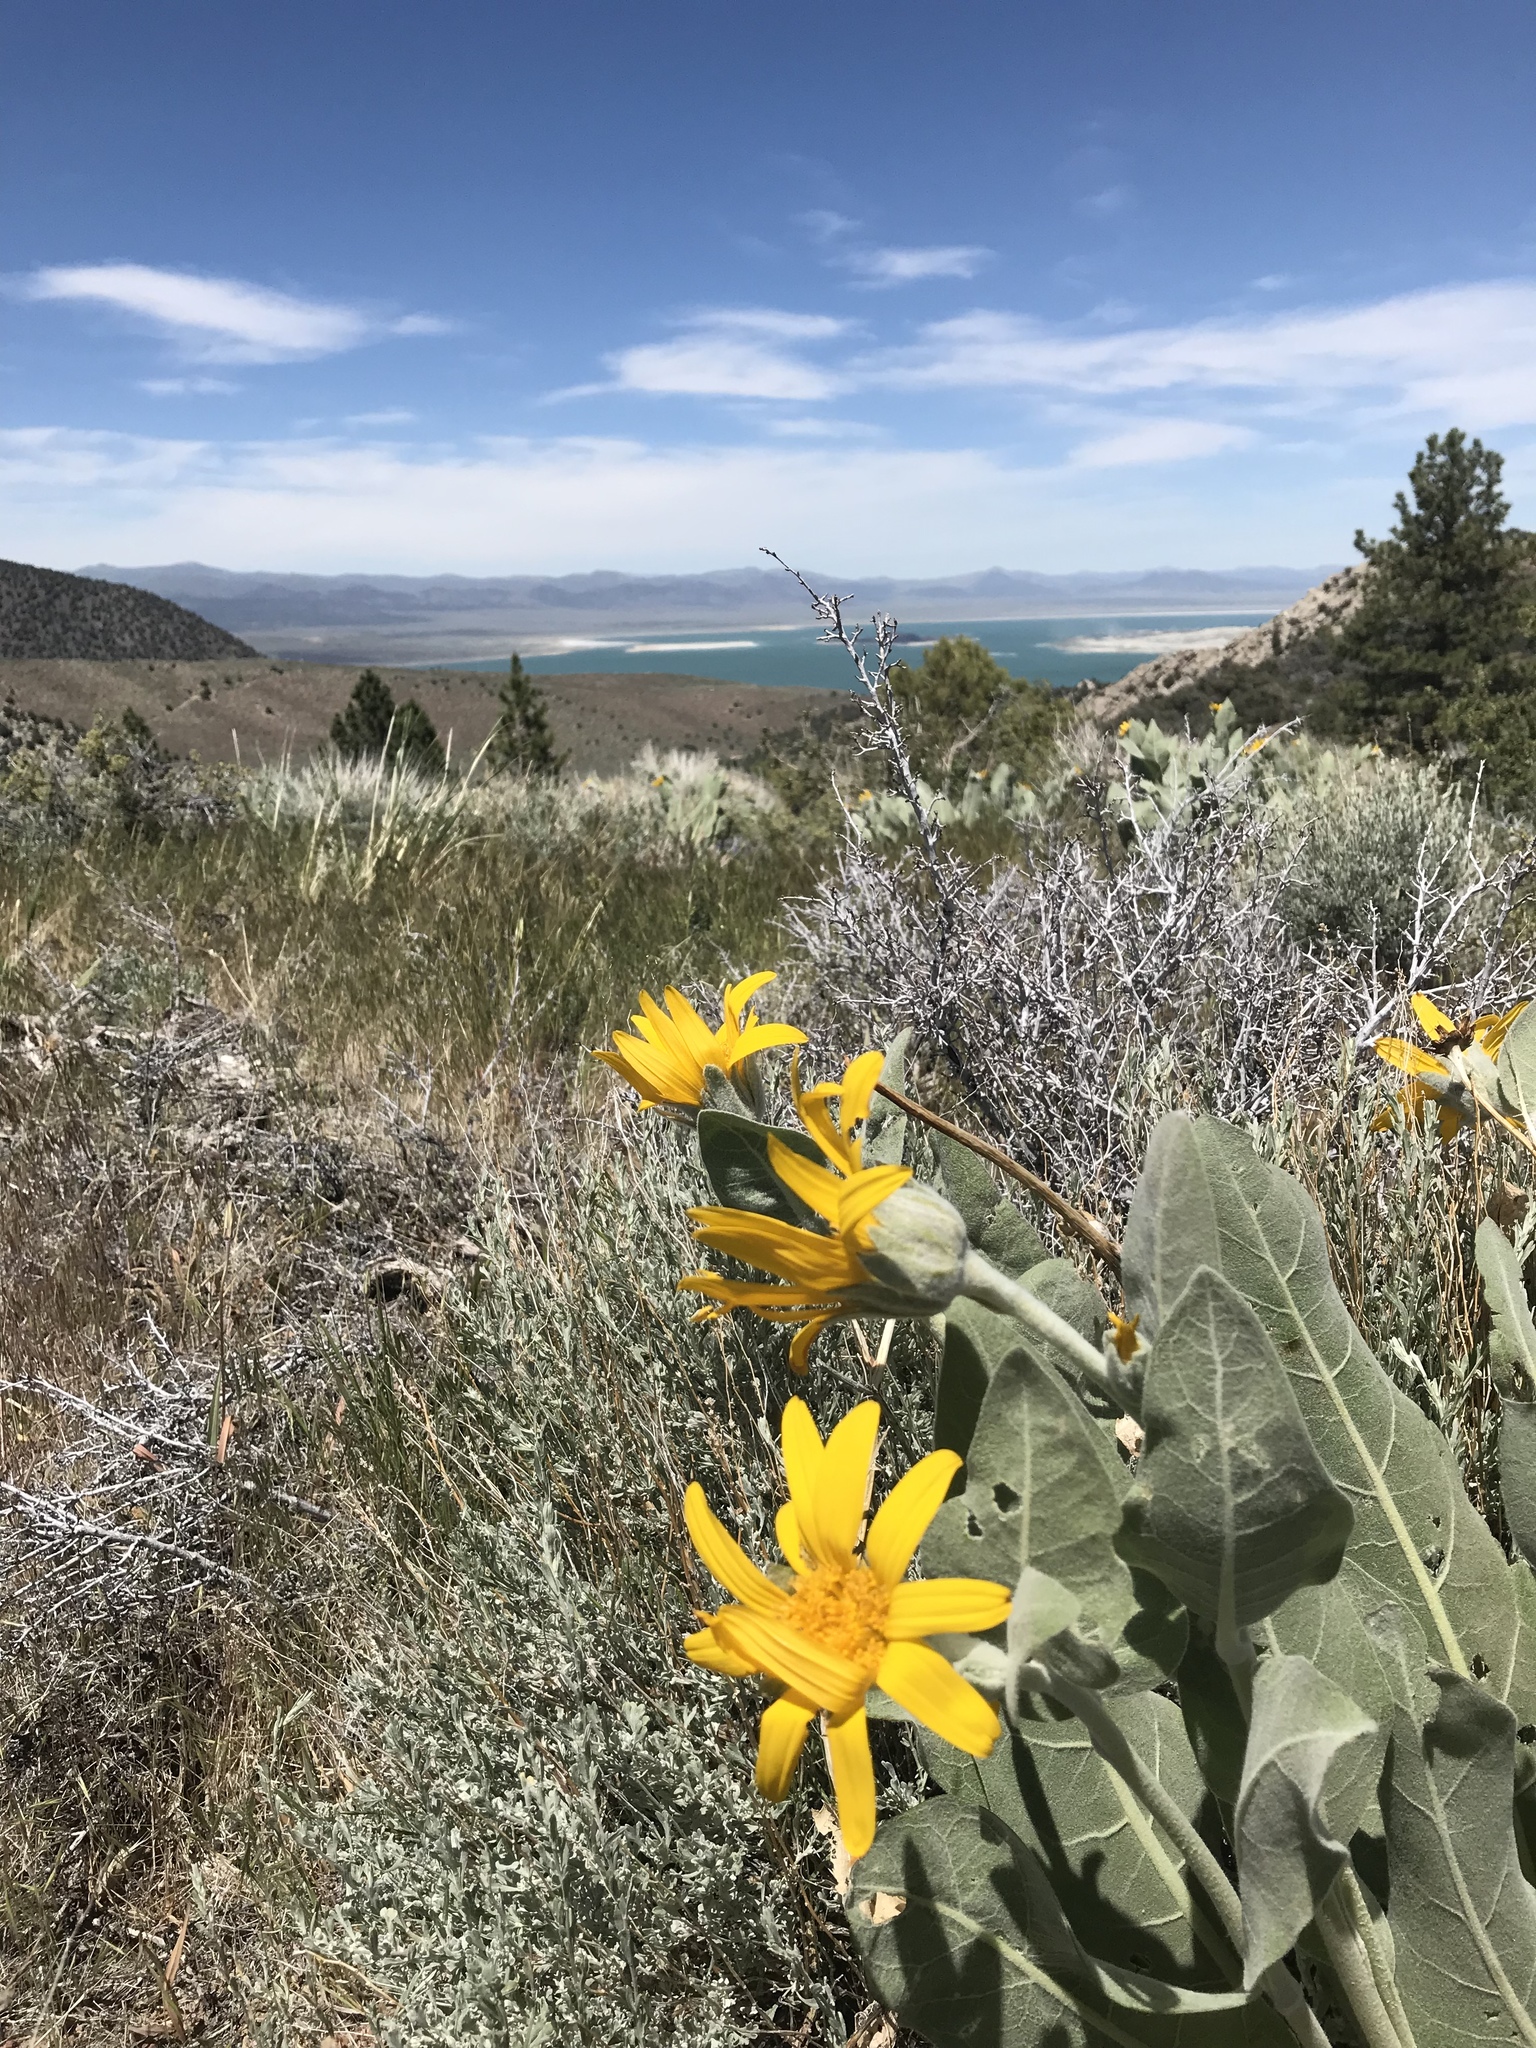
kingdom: Plantae
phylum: Tracheophyta
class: Magnoliopsida
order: Asterales
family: Asteraceae
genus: Wyethia
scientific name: Wyethia mollis
